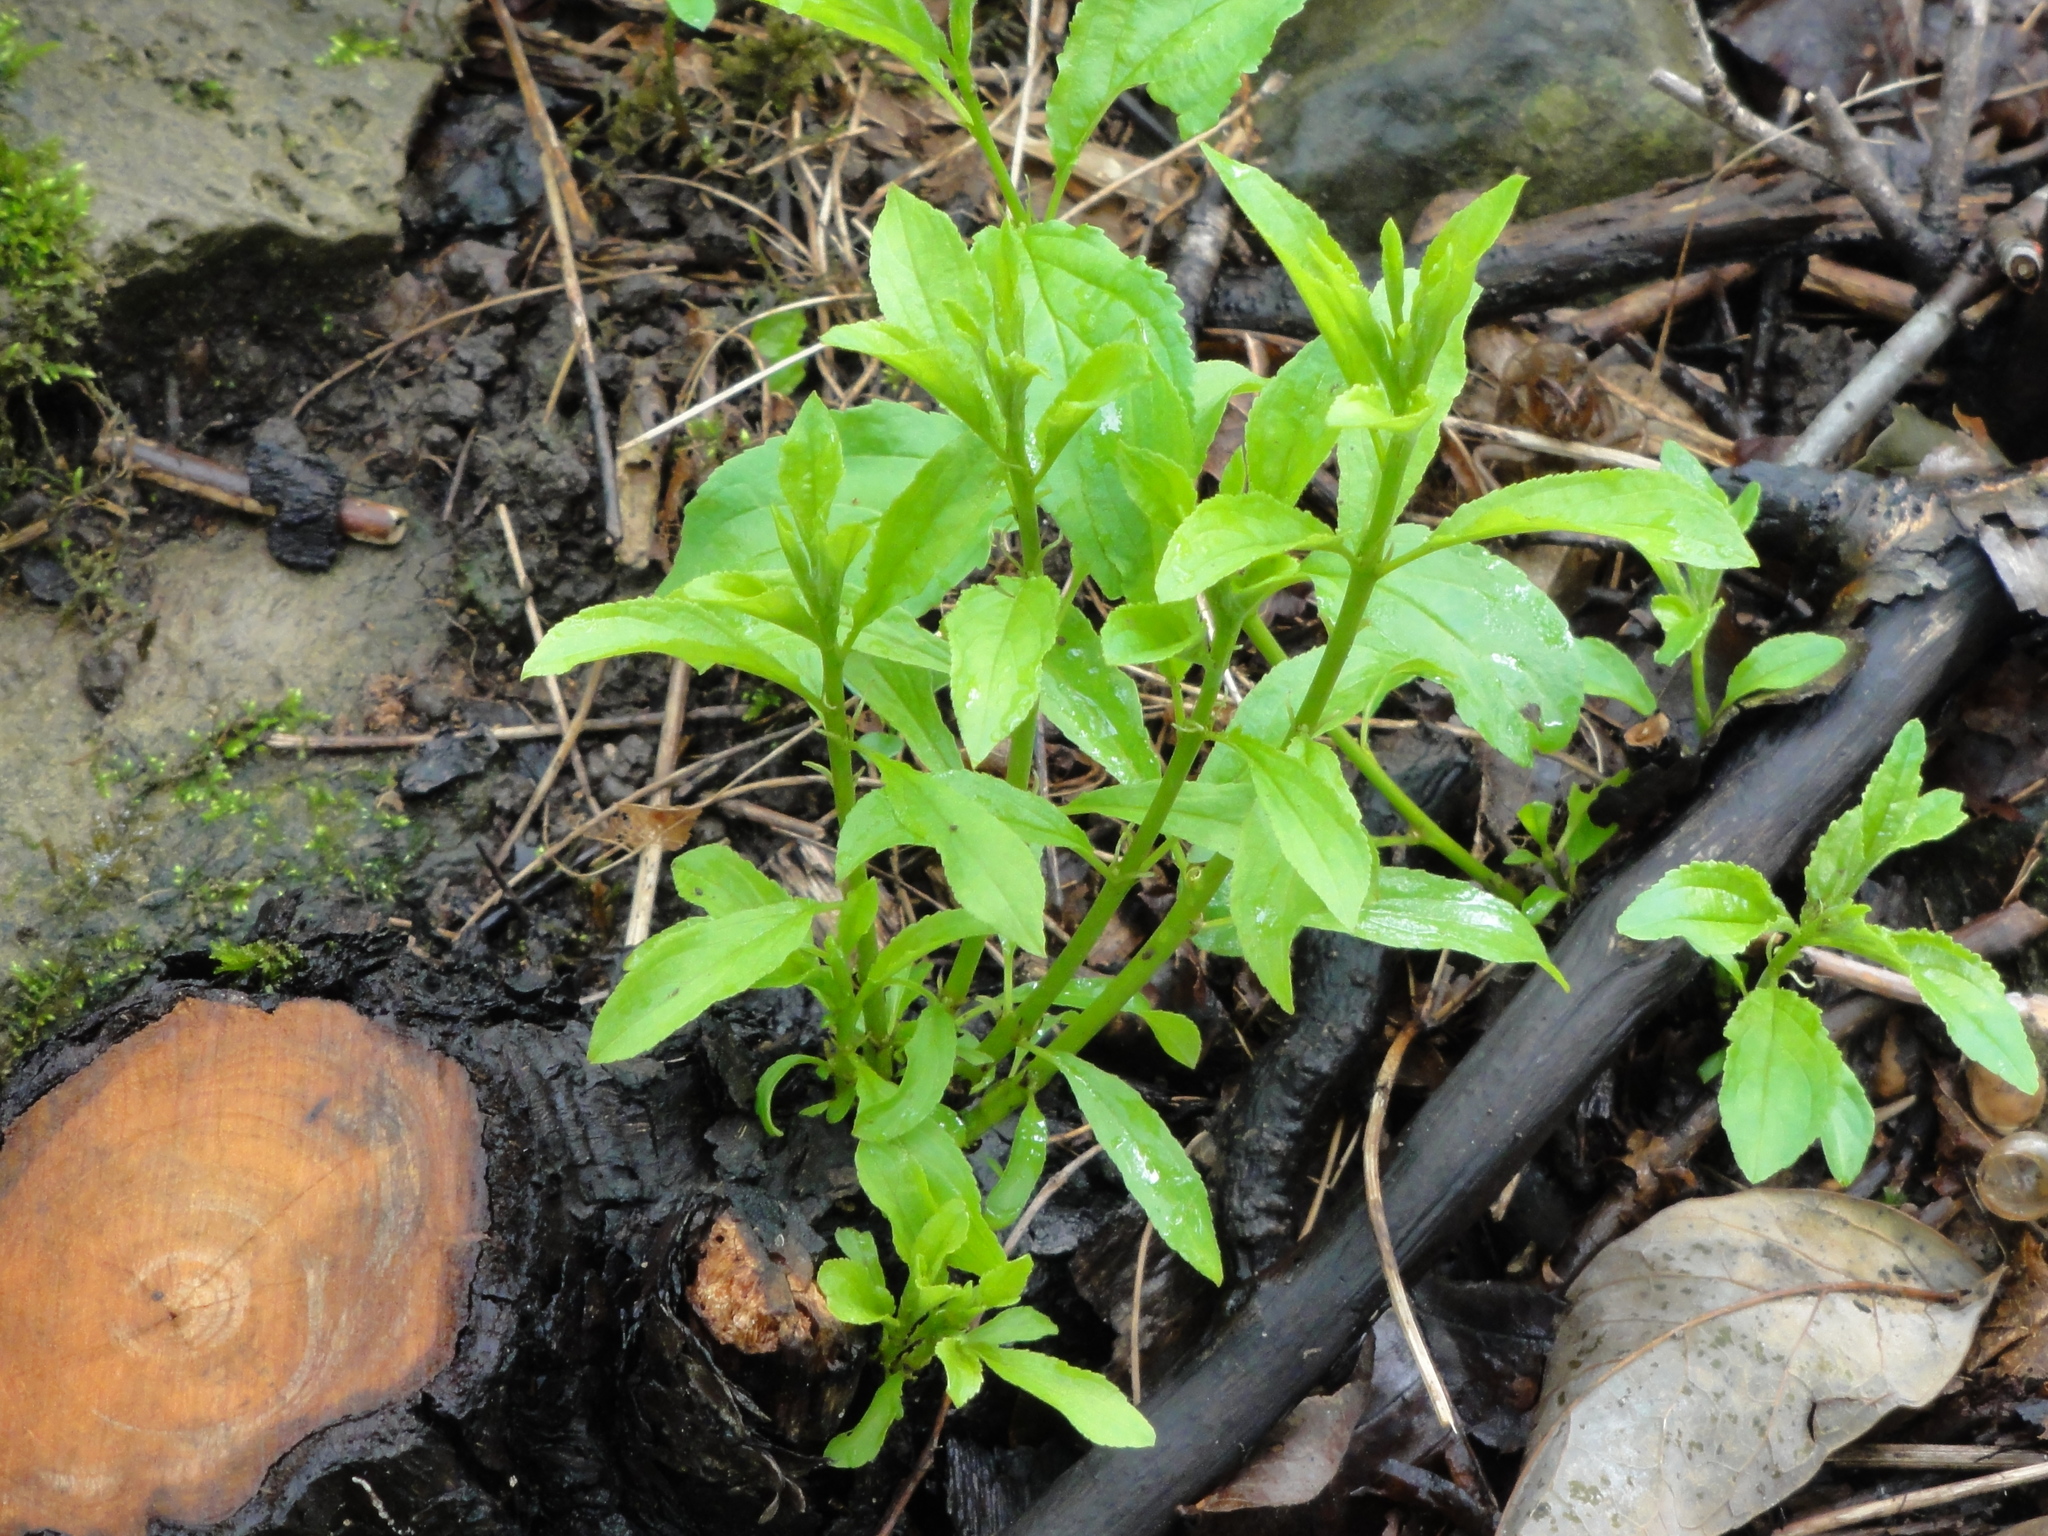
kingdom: Plantae
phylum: Tracheophyta
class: Magnoliopsida
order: Rosales
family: Rhamnaceae
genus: Rhamnus
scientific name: Rhamnus cathartica
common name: Common buckthorn
